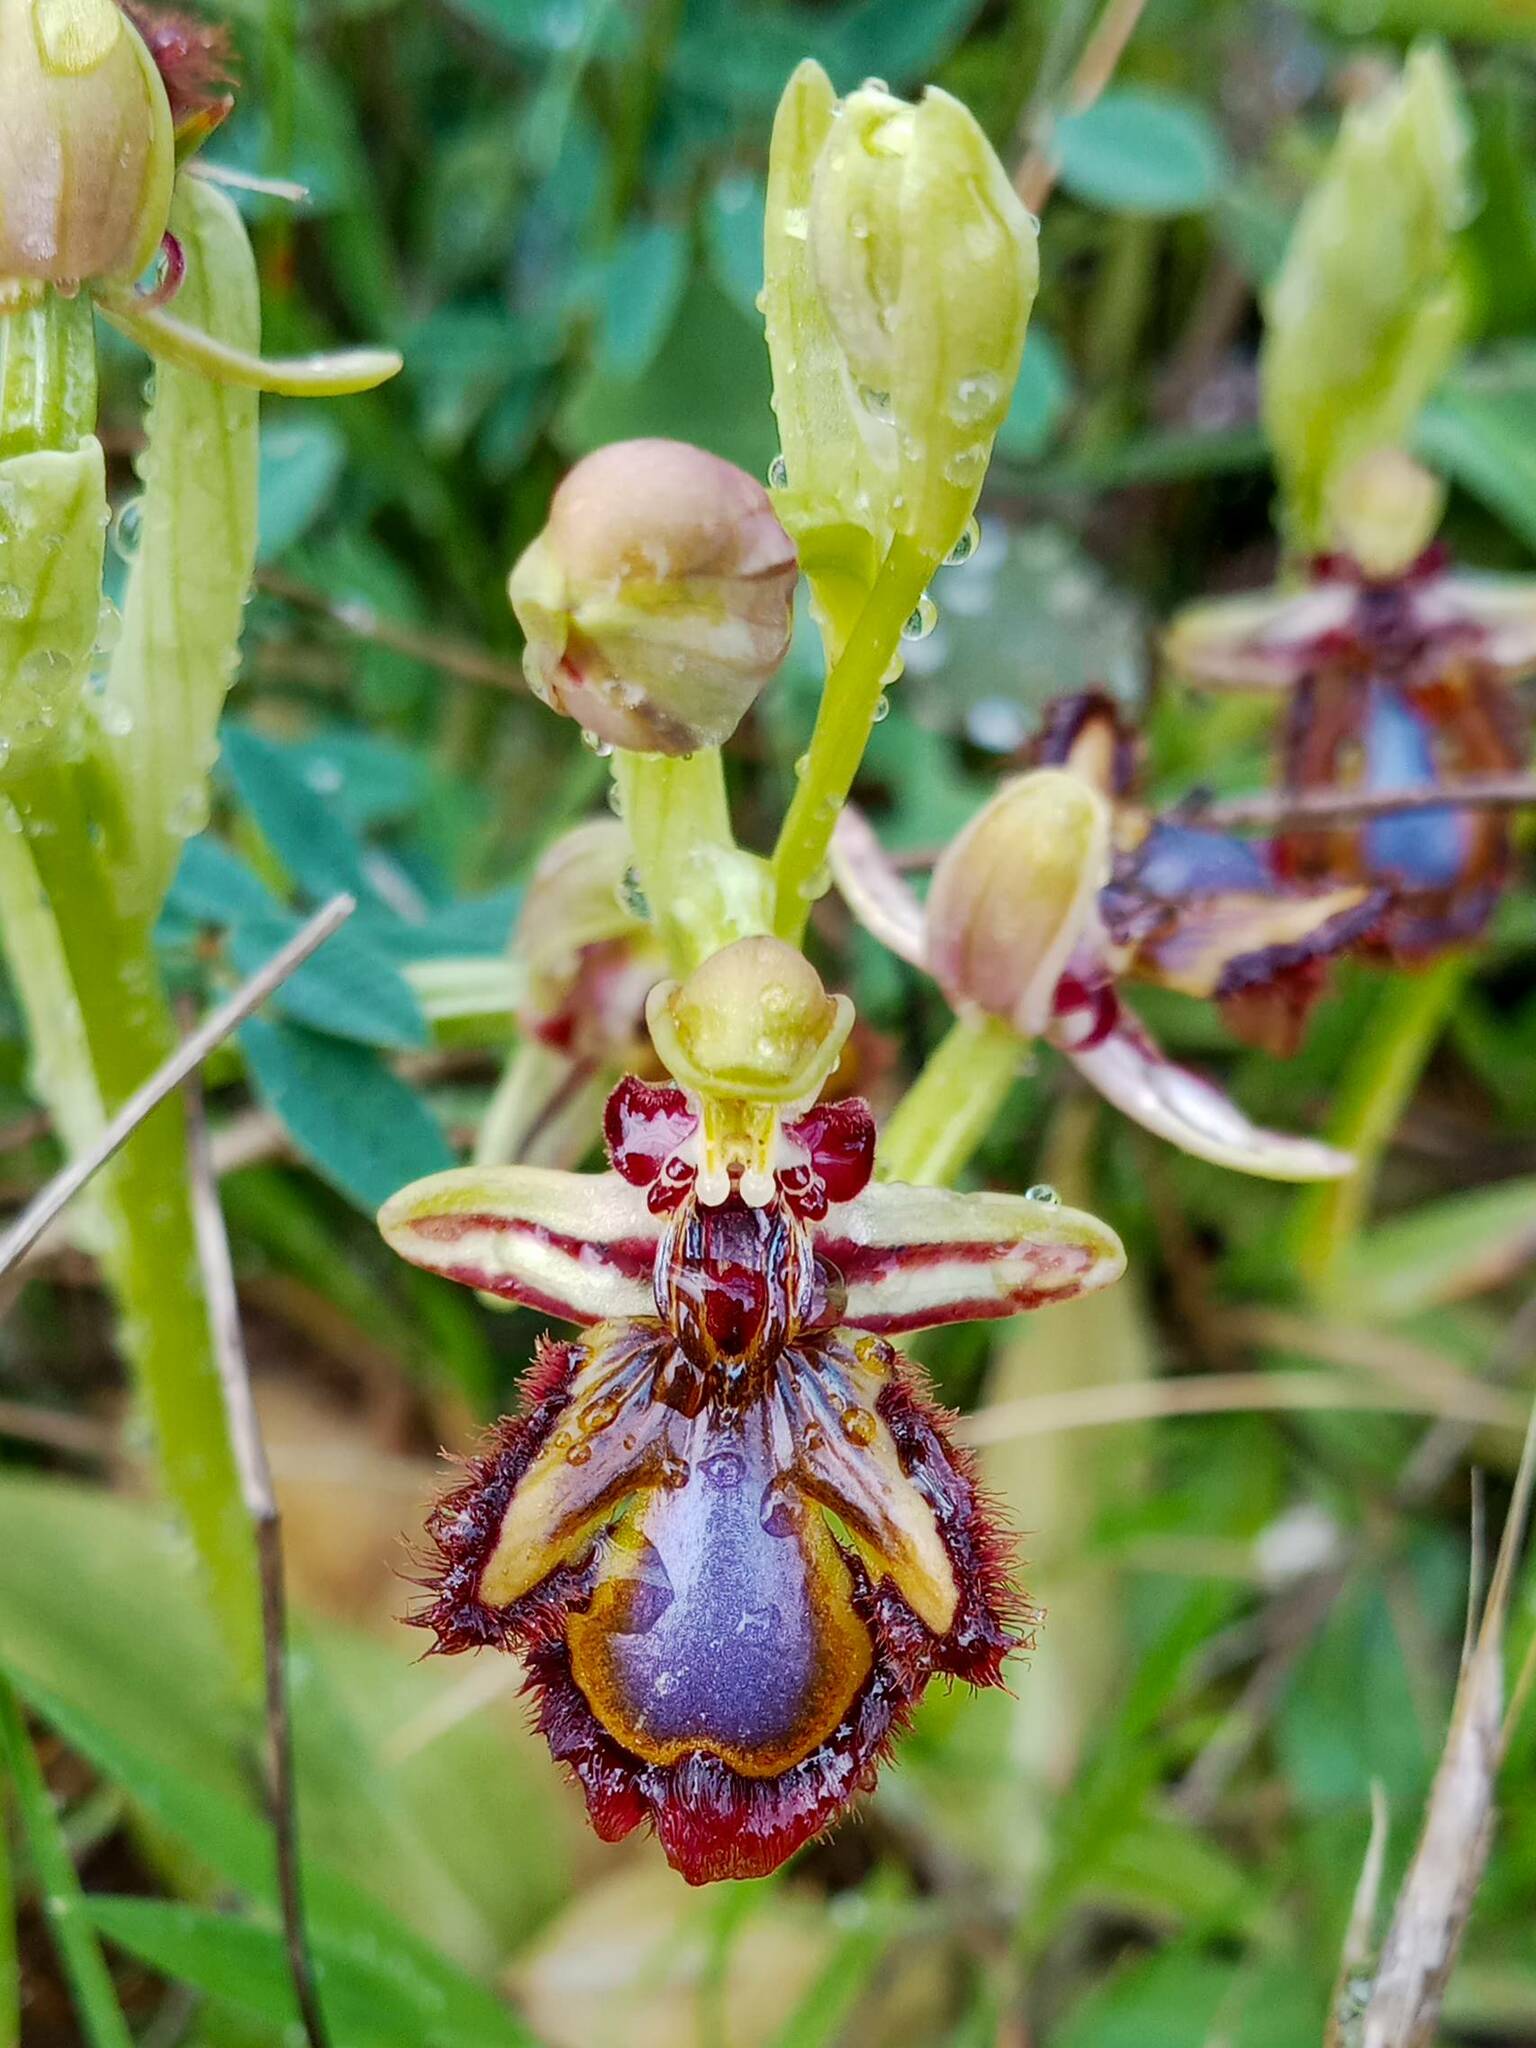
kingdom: Plantae
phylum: Tracheophyta
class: Liliopsida
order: Asparagales
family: Orchidaceae
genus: Ophrys
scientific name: Ophrys speculum
